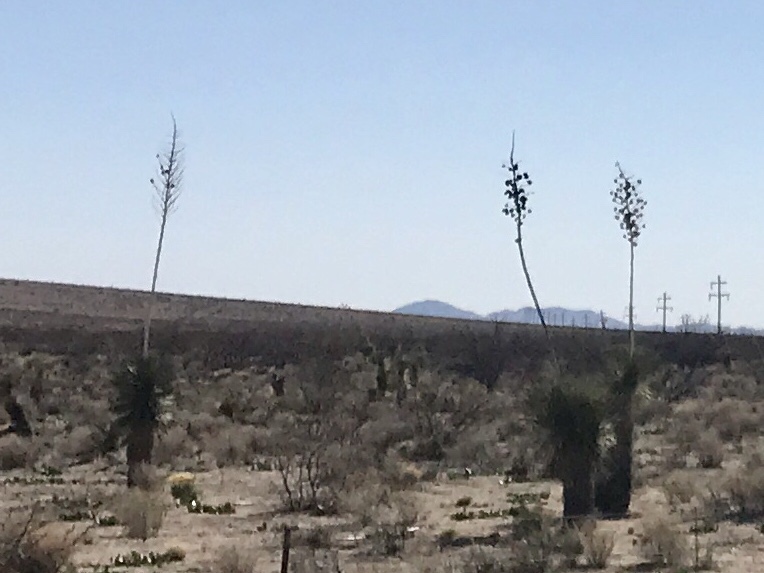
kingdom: Plantae
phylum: Tracheophyta
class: Liliopsida
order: Asparagales
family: Asparagaceae
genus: Yucca
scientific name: Yucca elata
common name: Palmella
